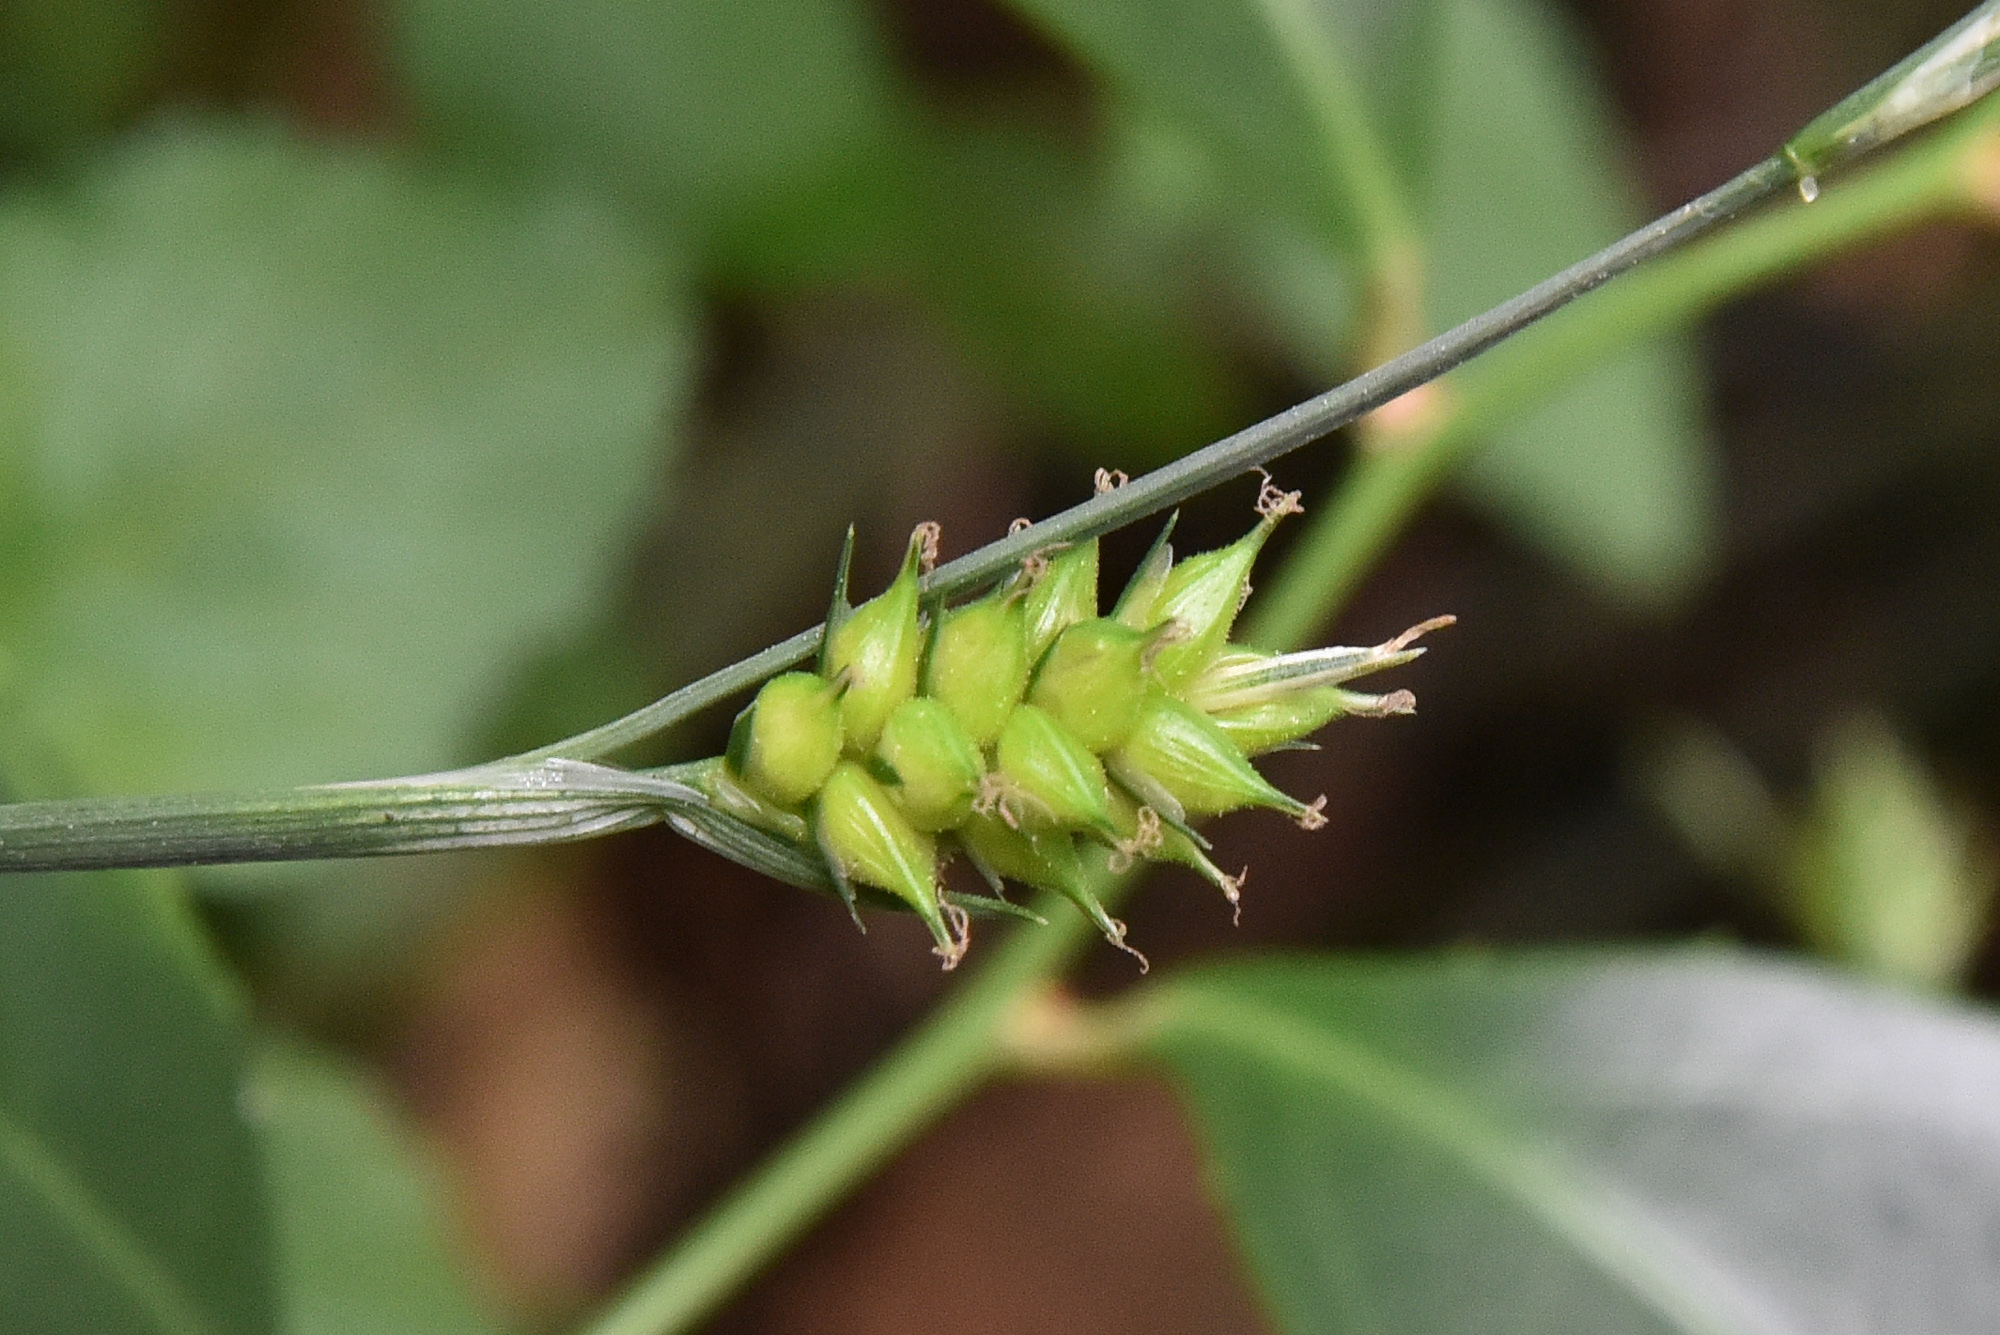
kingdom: Plantae
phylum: Tracheophyta
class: Liliopsida
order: Poales
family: Cyperaceae
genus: Carex
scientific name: Carex breviculmis
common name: Asian shortstem sedge
